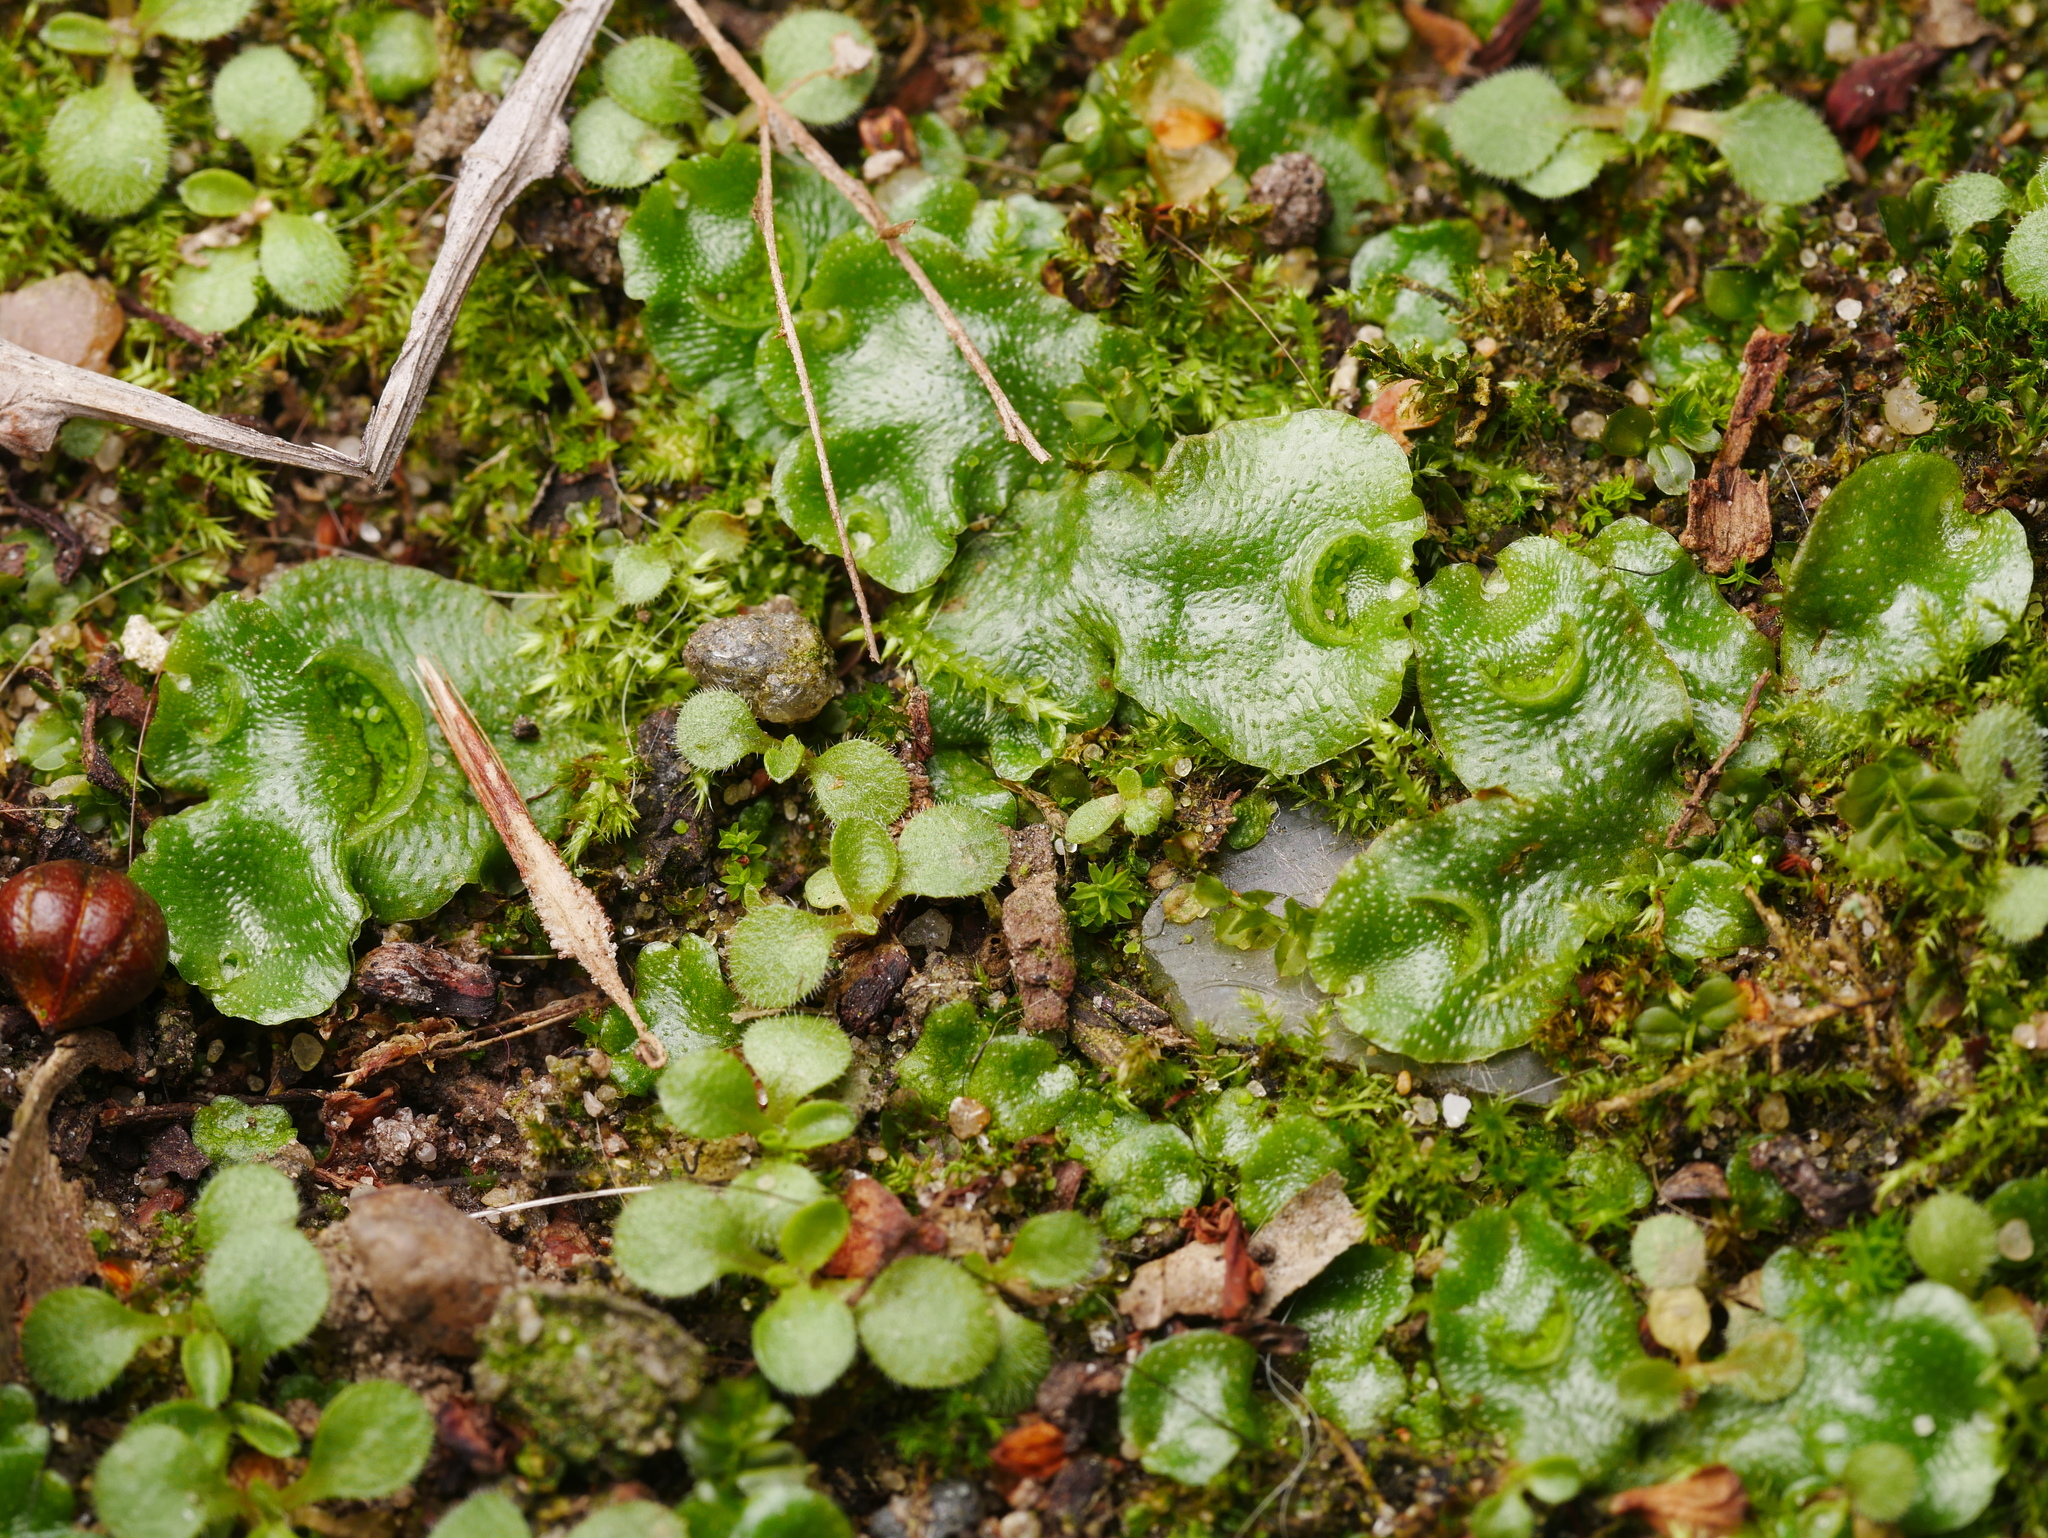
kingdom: Plantae
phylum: Marchantiophyta
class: Marchantiopsida
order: Lunulariales
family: Lunulariaceae
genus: Lunularia
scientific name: Lunularia cruciata
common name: Crescent-cup liverwort
